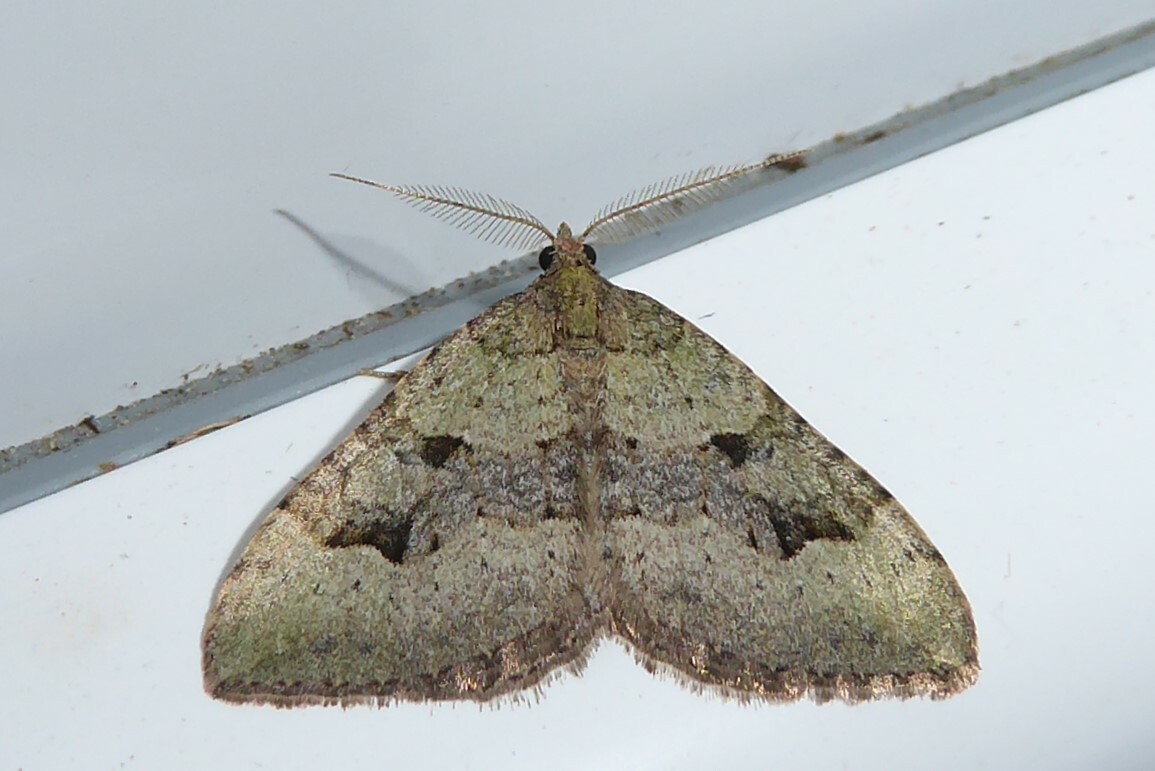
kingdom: Animalia
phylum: Arthropoda
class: Insecta
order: Lepidoptera
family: Geometridae
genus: Epyaxa
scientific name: Epyaxa rosearia
